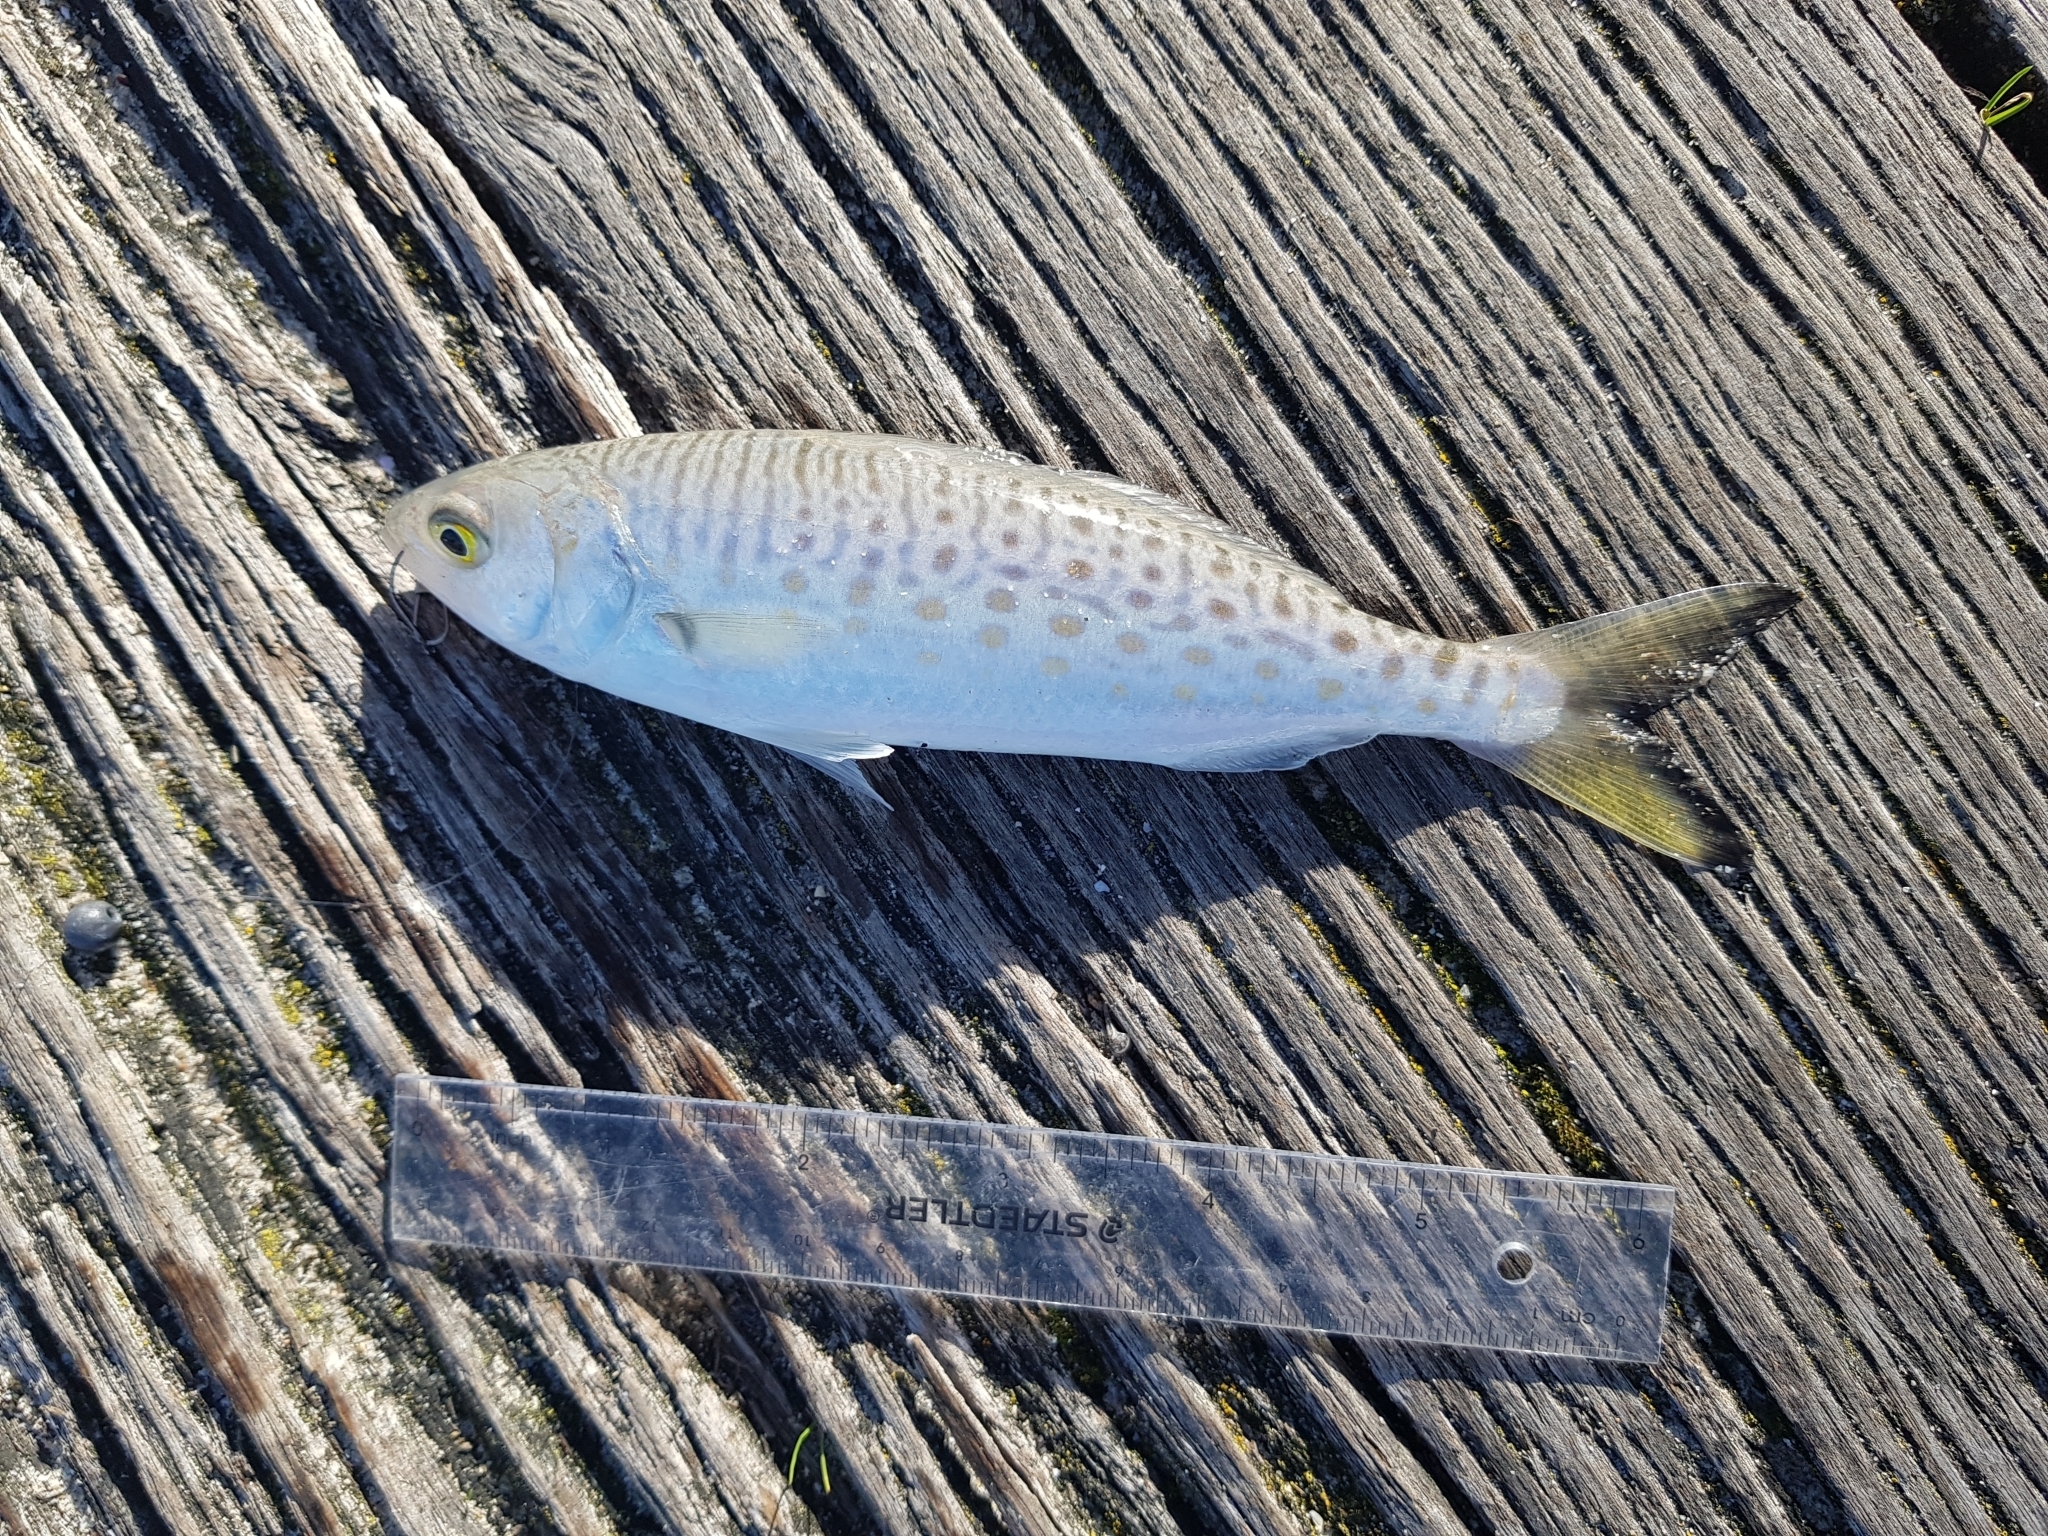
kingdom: Animalia
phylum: Chordata
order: Perciformes
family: Arripidae
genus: Arripis
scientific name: Arripis truttacea
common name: Australian salmon
